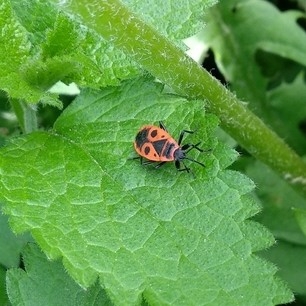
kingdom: Animalia
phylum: Arthropoda
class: Insecta
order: Hemiptera
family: Pyrrhocoridae
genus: Pyrrhocoris
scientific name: Pyrrhocoris apterus
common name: Firebug
